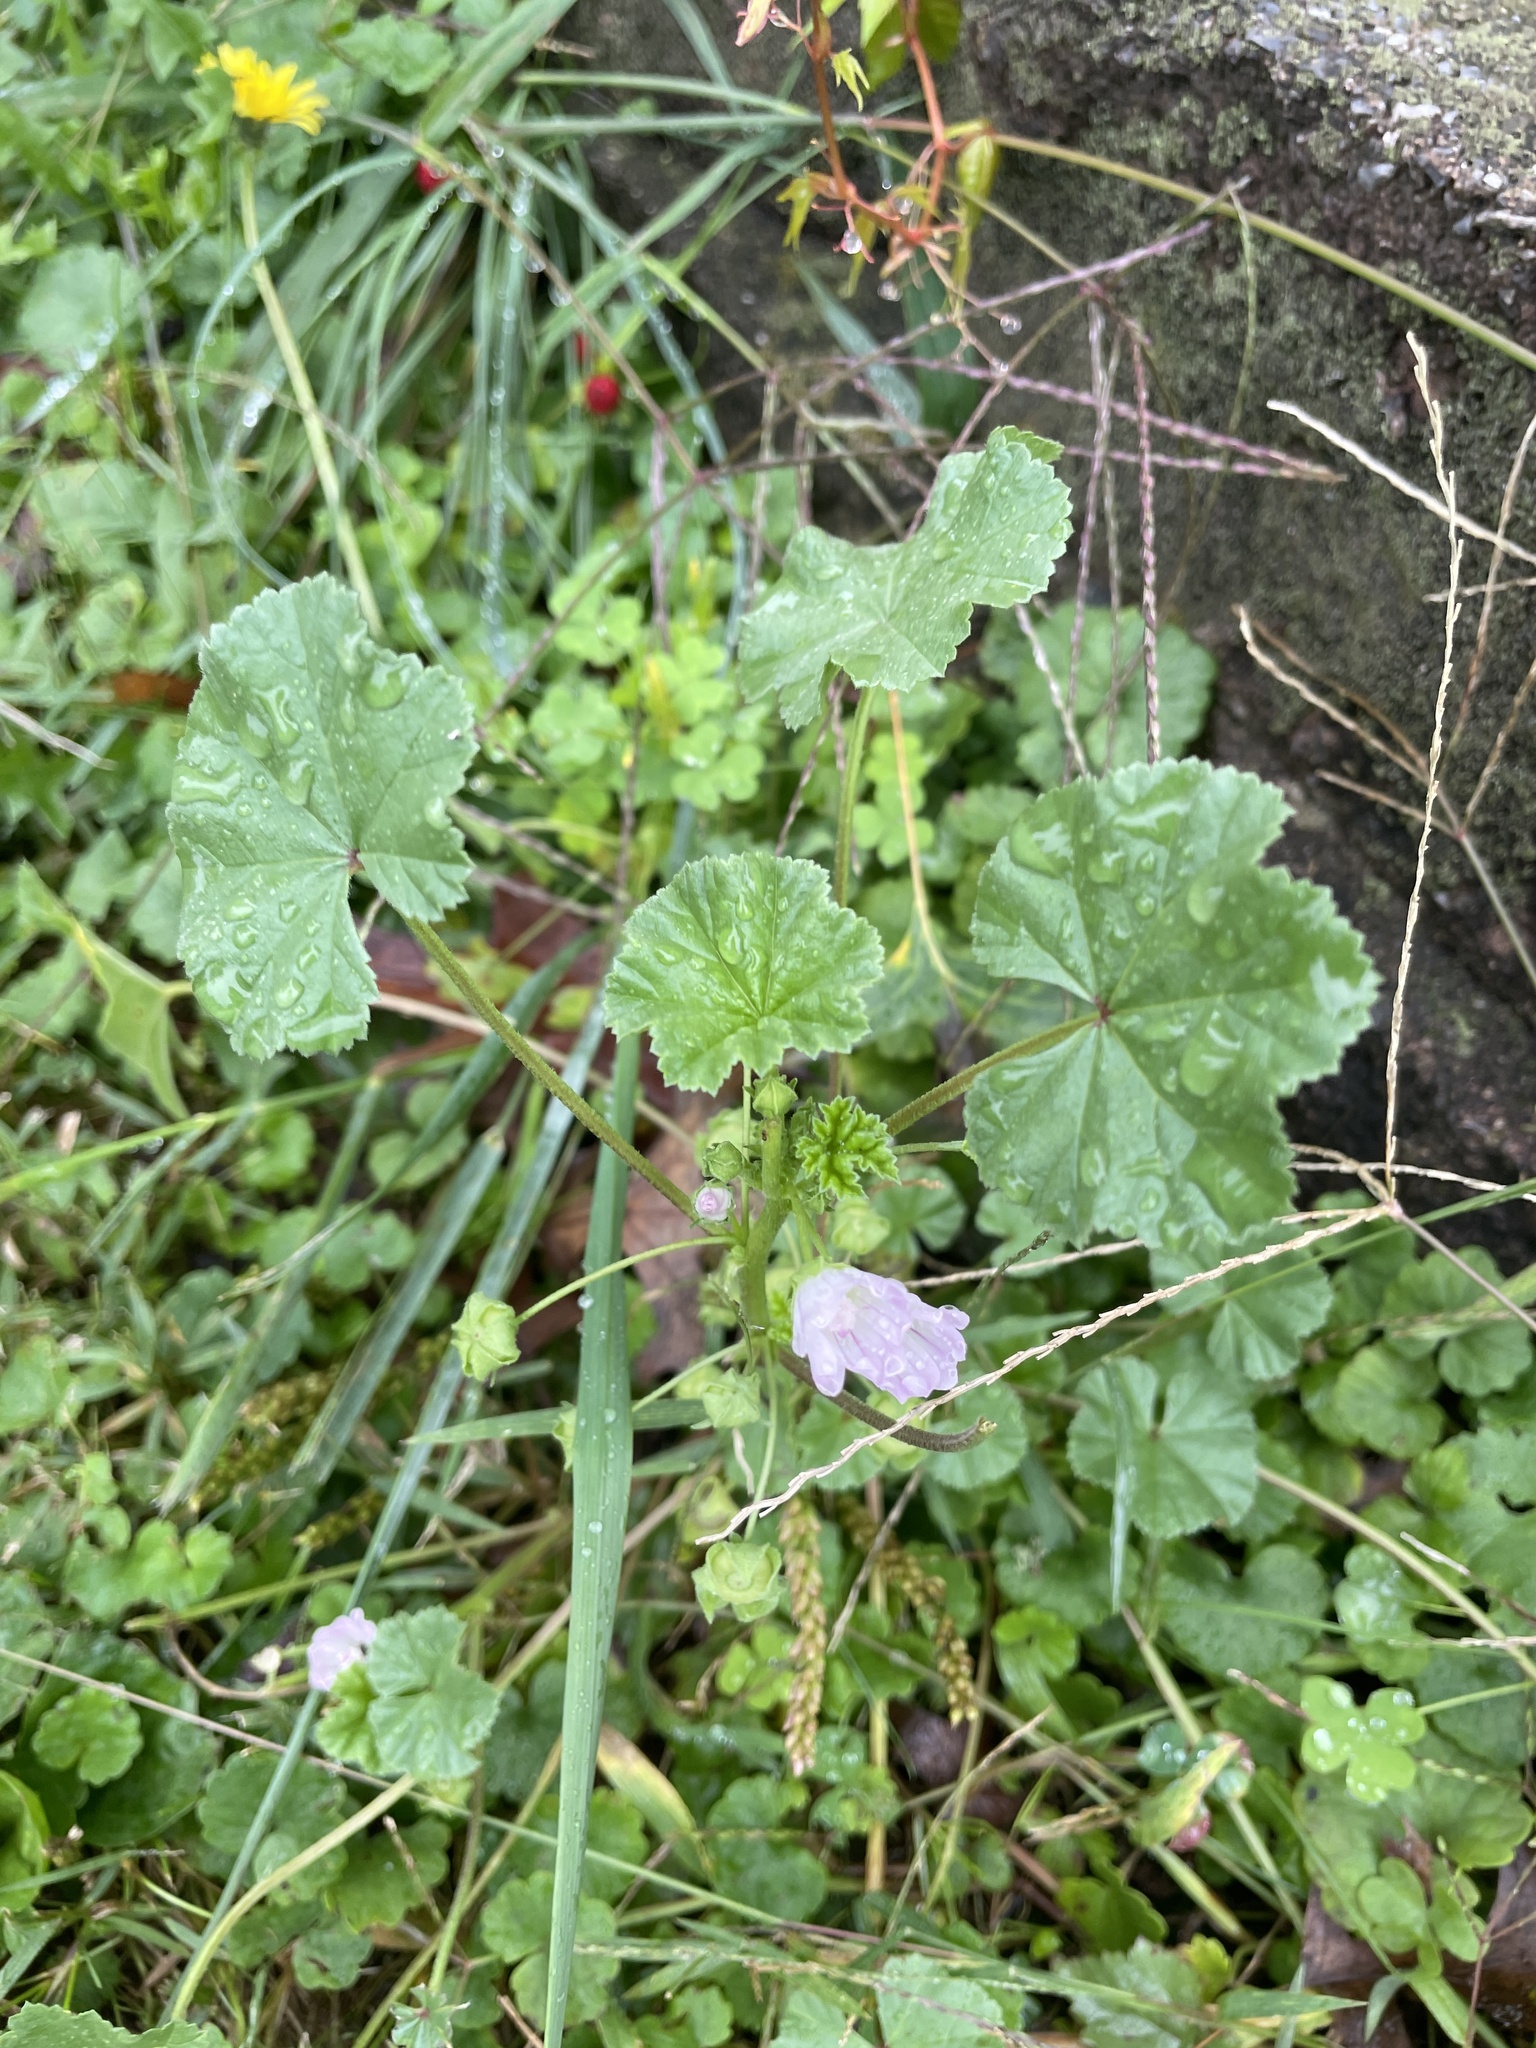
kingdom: Plantae
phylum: Tracheophyta
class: Magnoliopsida
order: Malvales
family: Malvaceae
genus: Malva
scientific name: Malva neglecta
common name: Common mallow
